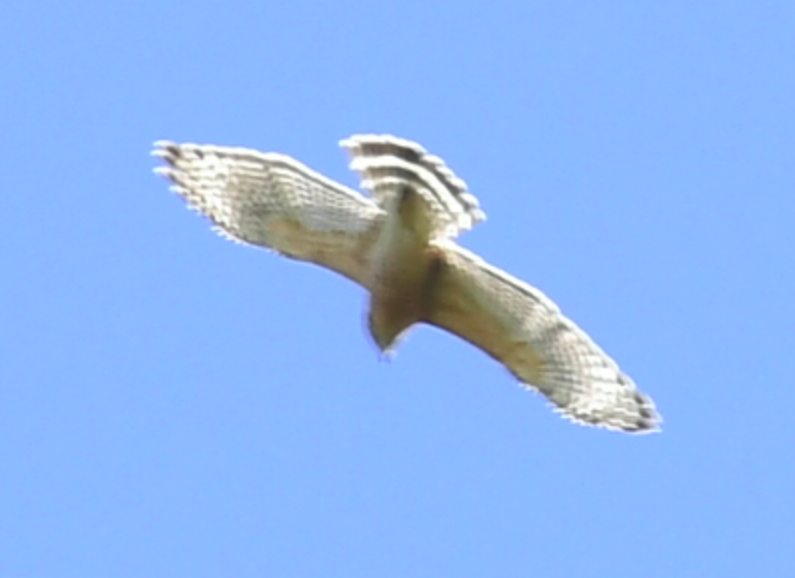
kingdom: Animalia
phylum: Chordata
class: Aves
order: Accipitriformes
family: Accipitridae
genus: Buteo
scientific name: Buteo lineatus
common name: Red-shouldered hawk
